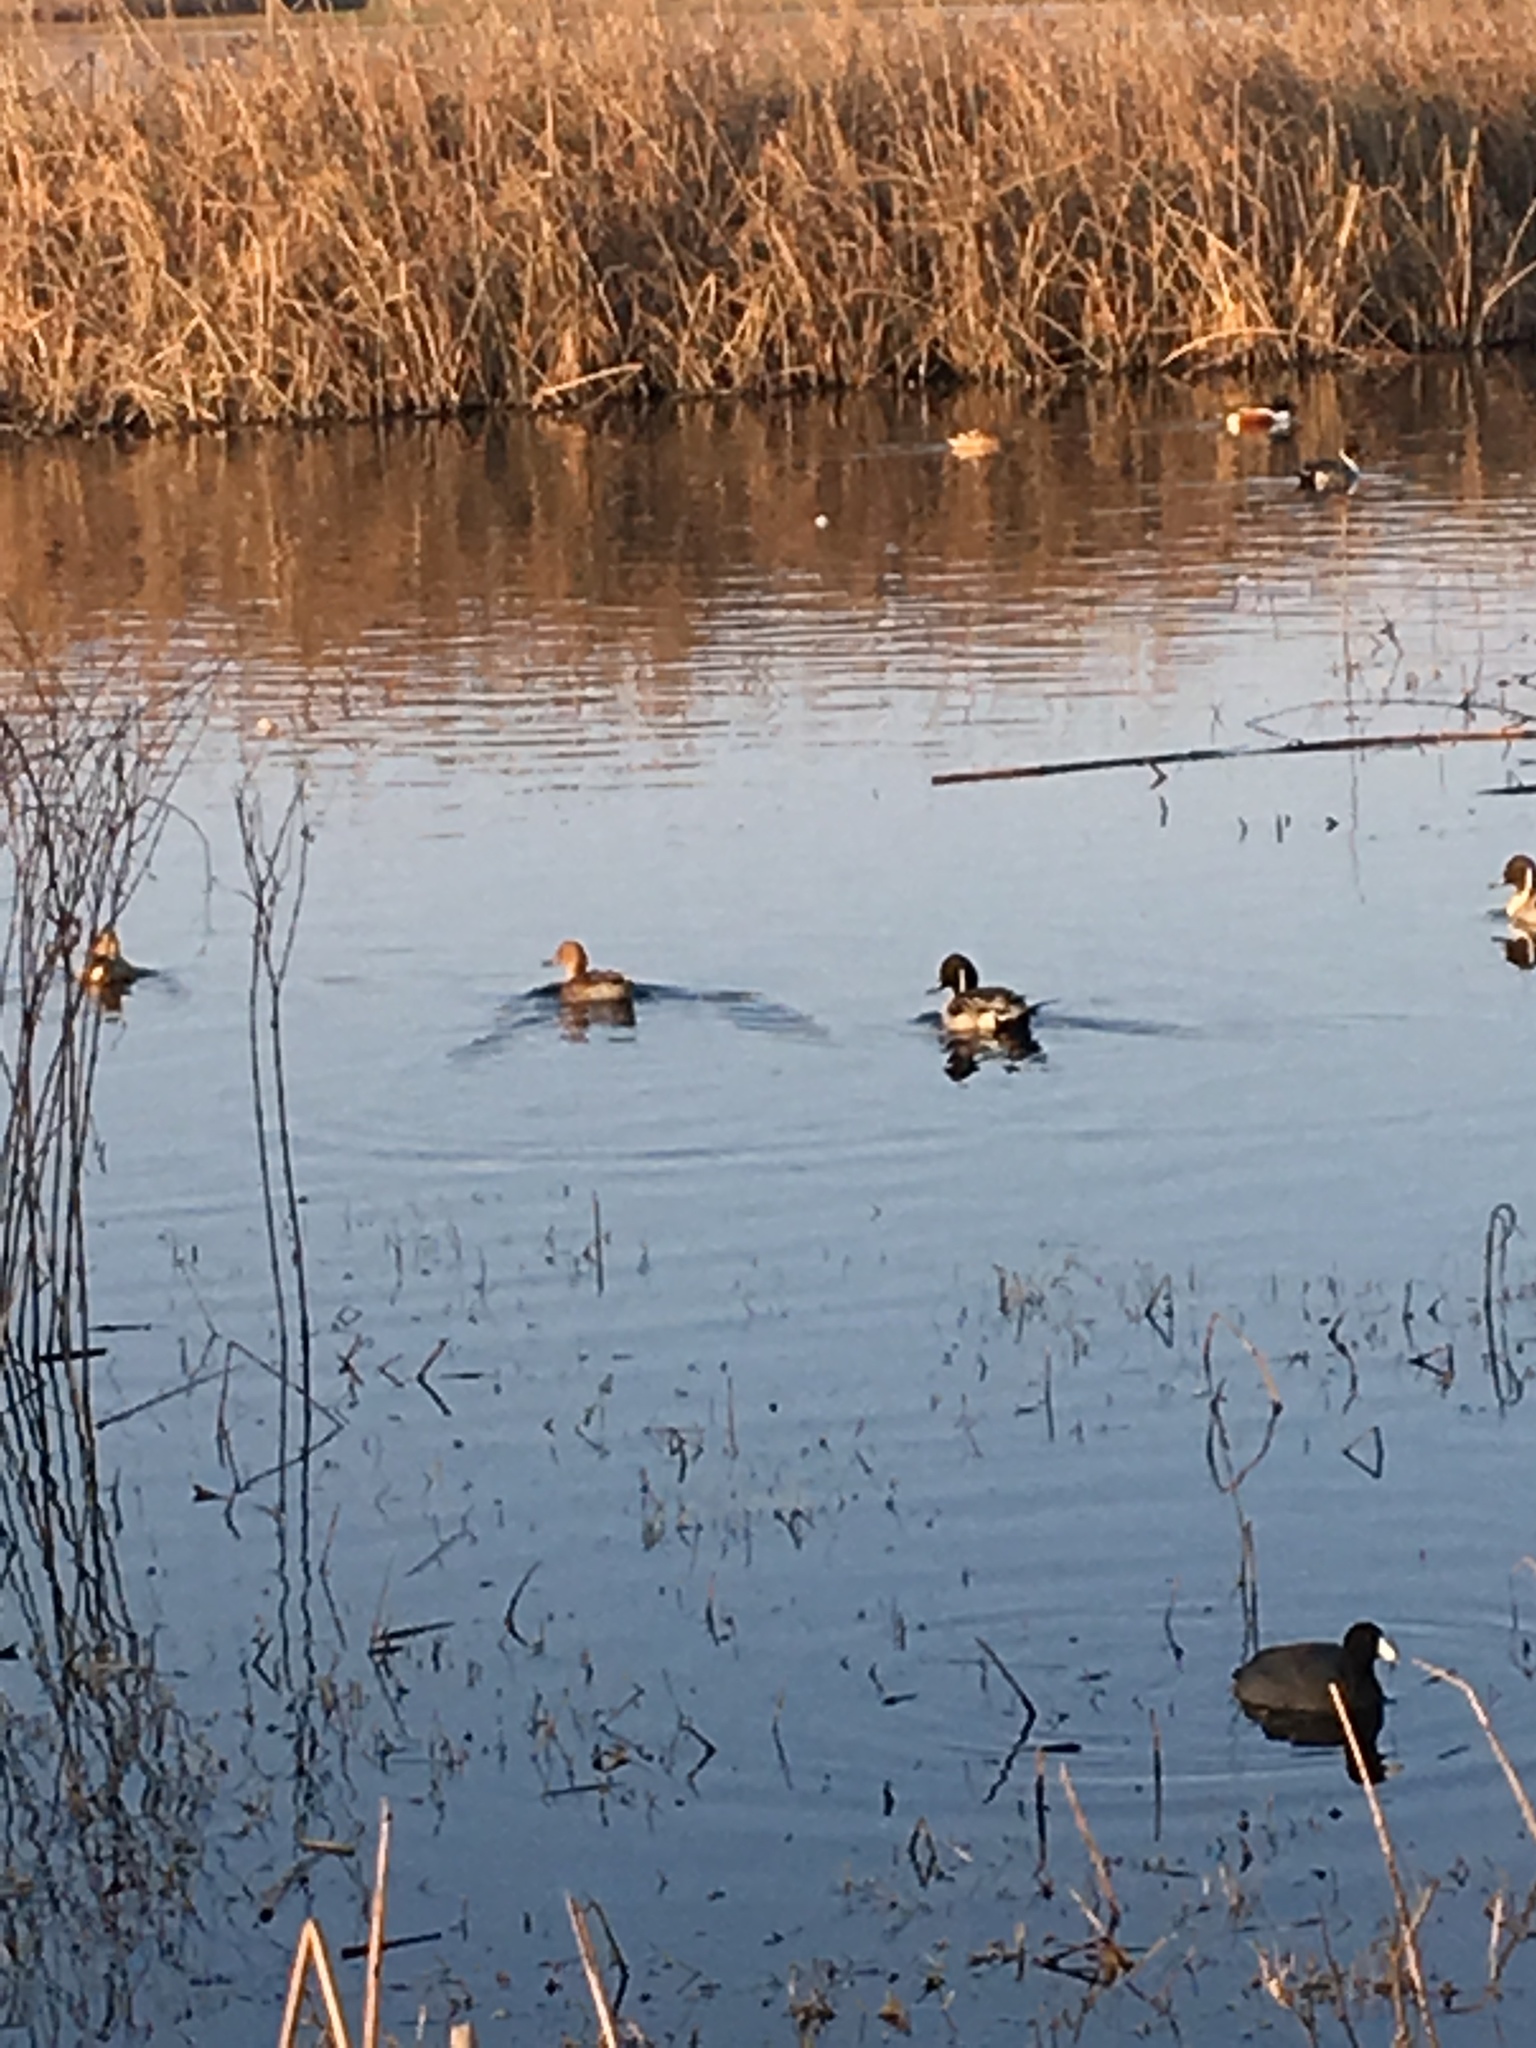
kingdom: Animalia
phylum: Chordata
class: Aves
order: Anseriformes
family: Anatidae
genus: Anas
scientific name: Anas acuta
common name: Northern pintail
